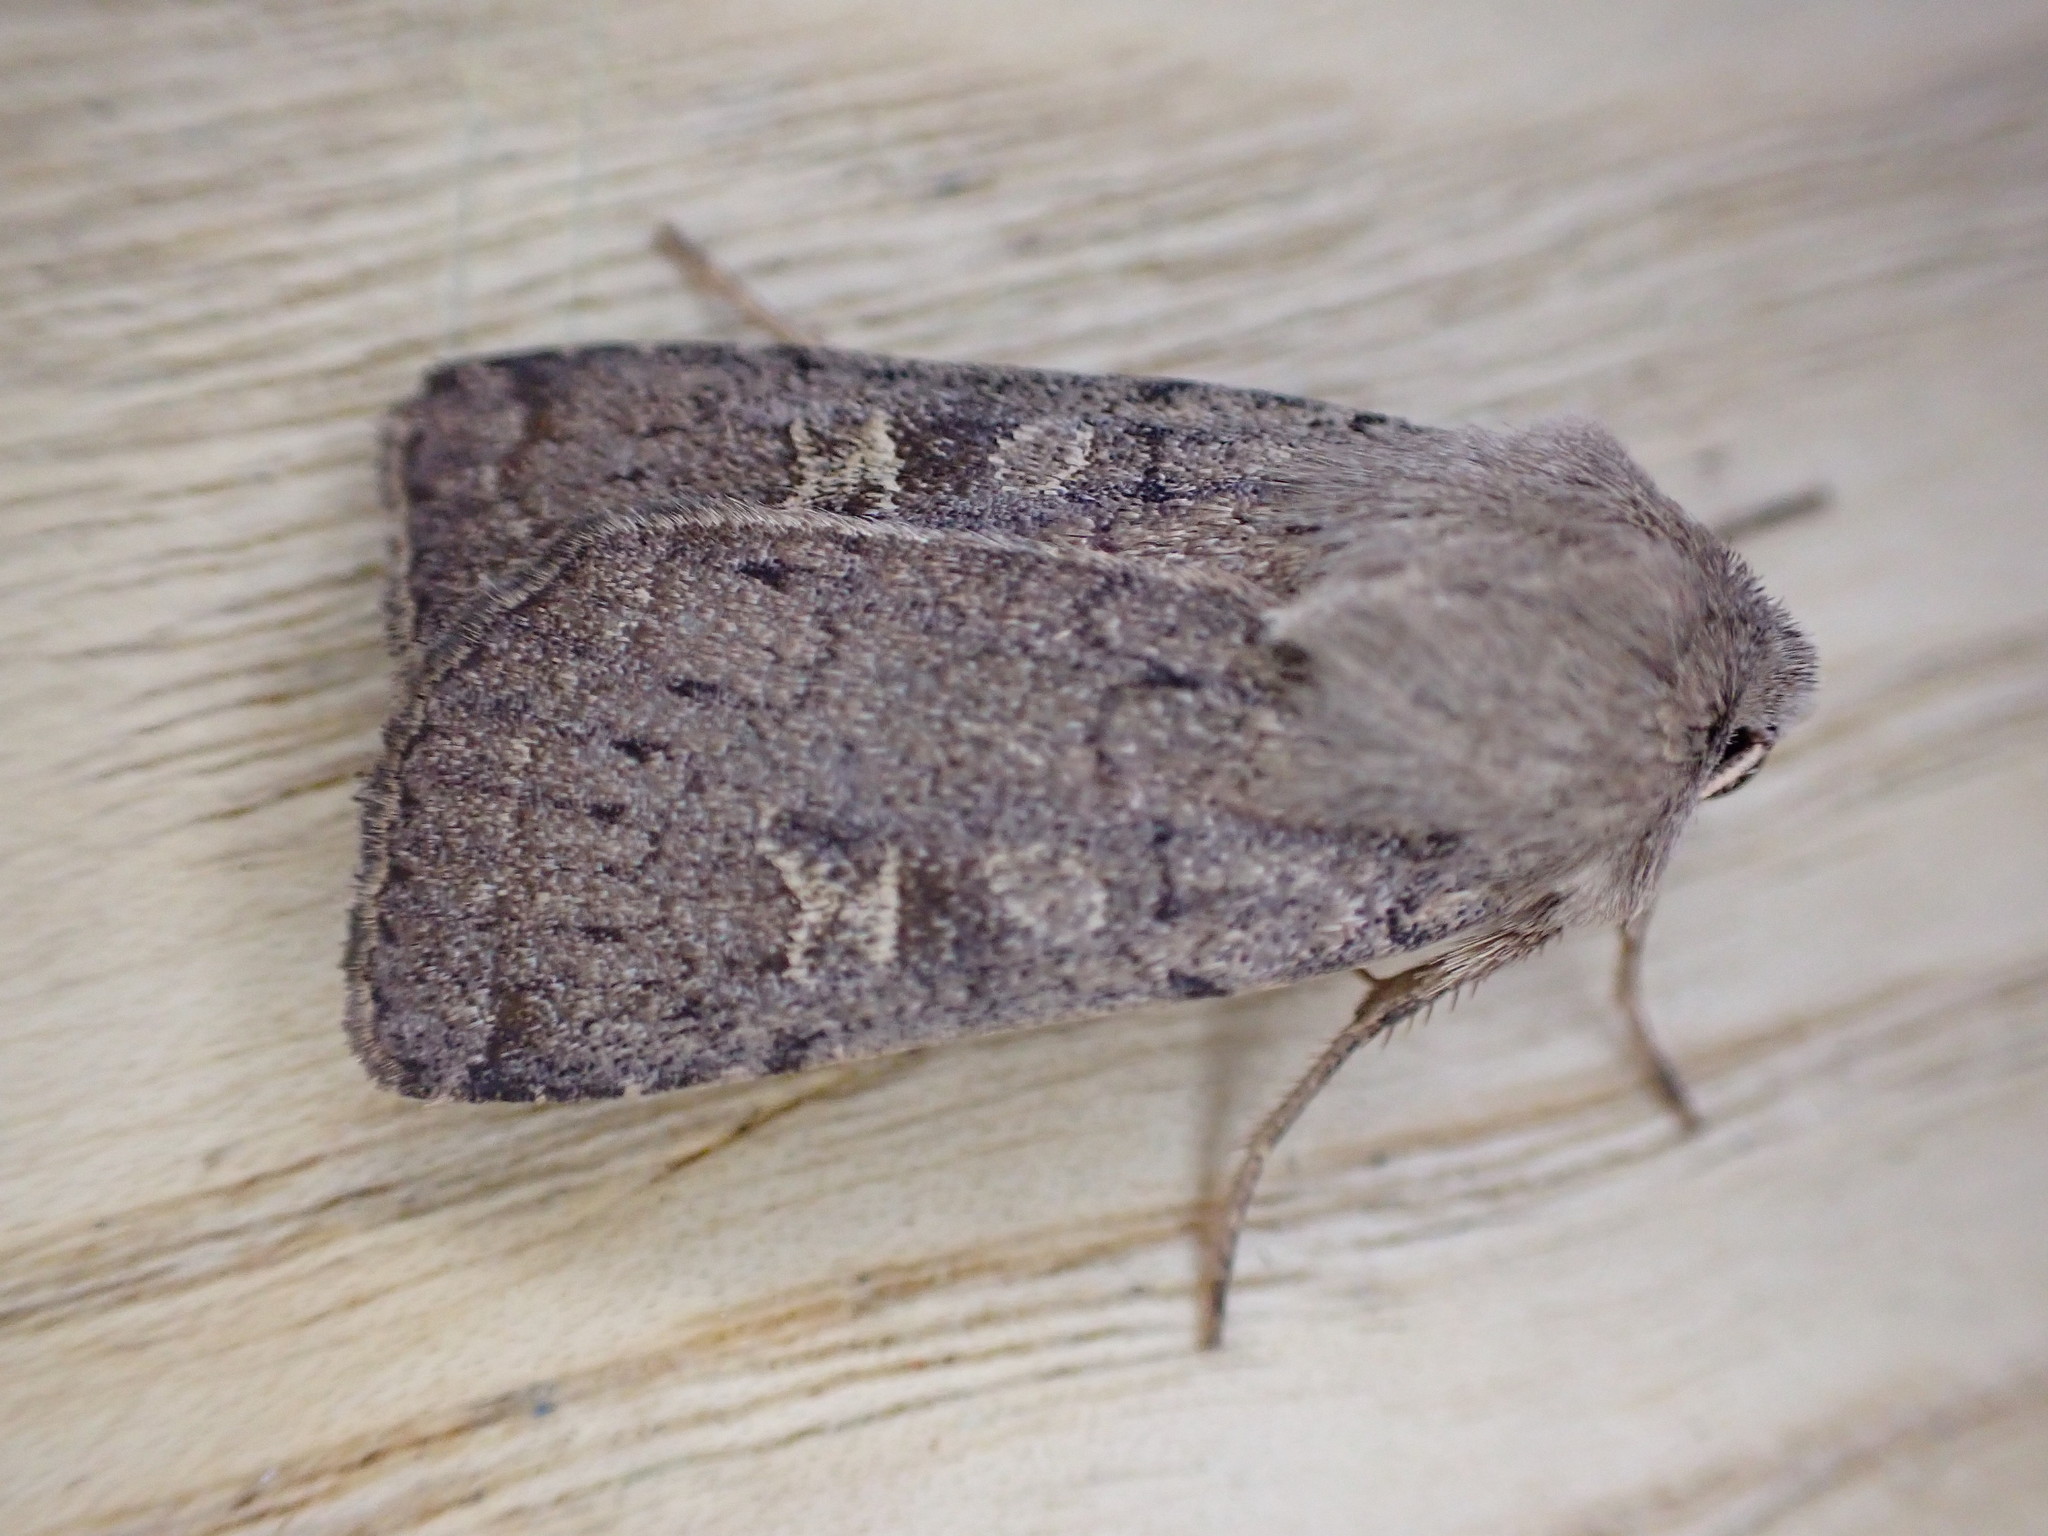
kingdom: Animalia
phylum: Arthropoda
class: Insecta
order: Lepidoptera
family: Noctuidae
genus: Xestia
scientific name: Xestia xanthographa
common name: Square-spot rustic
